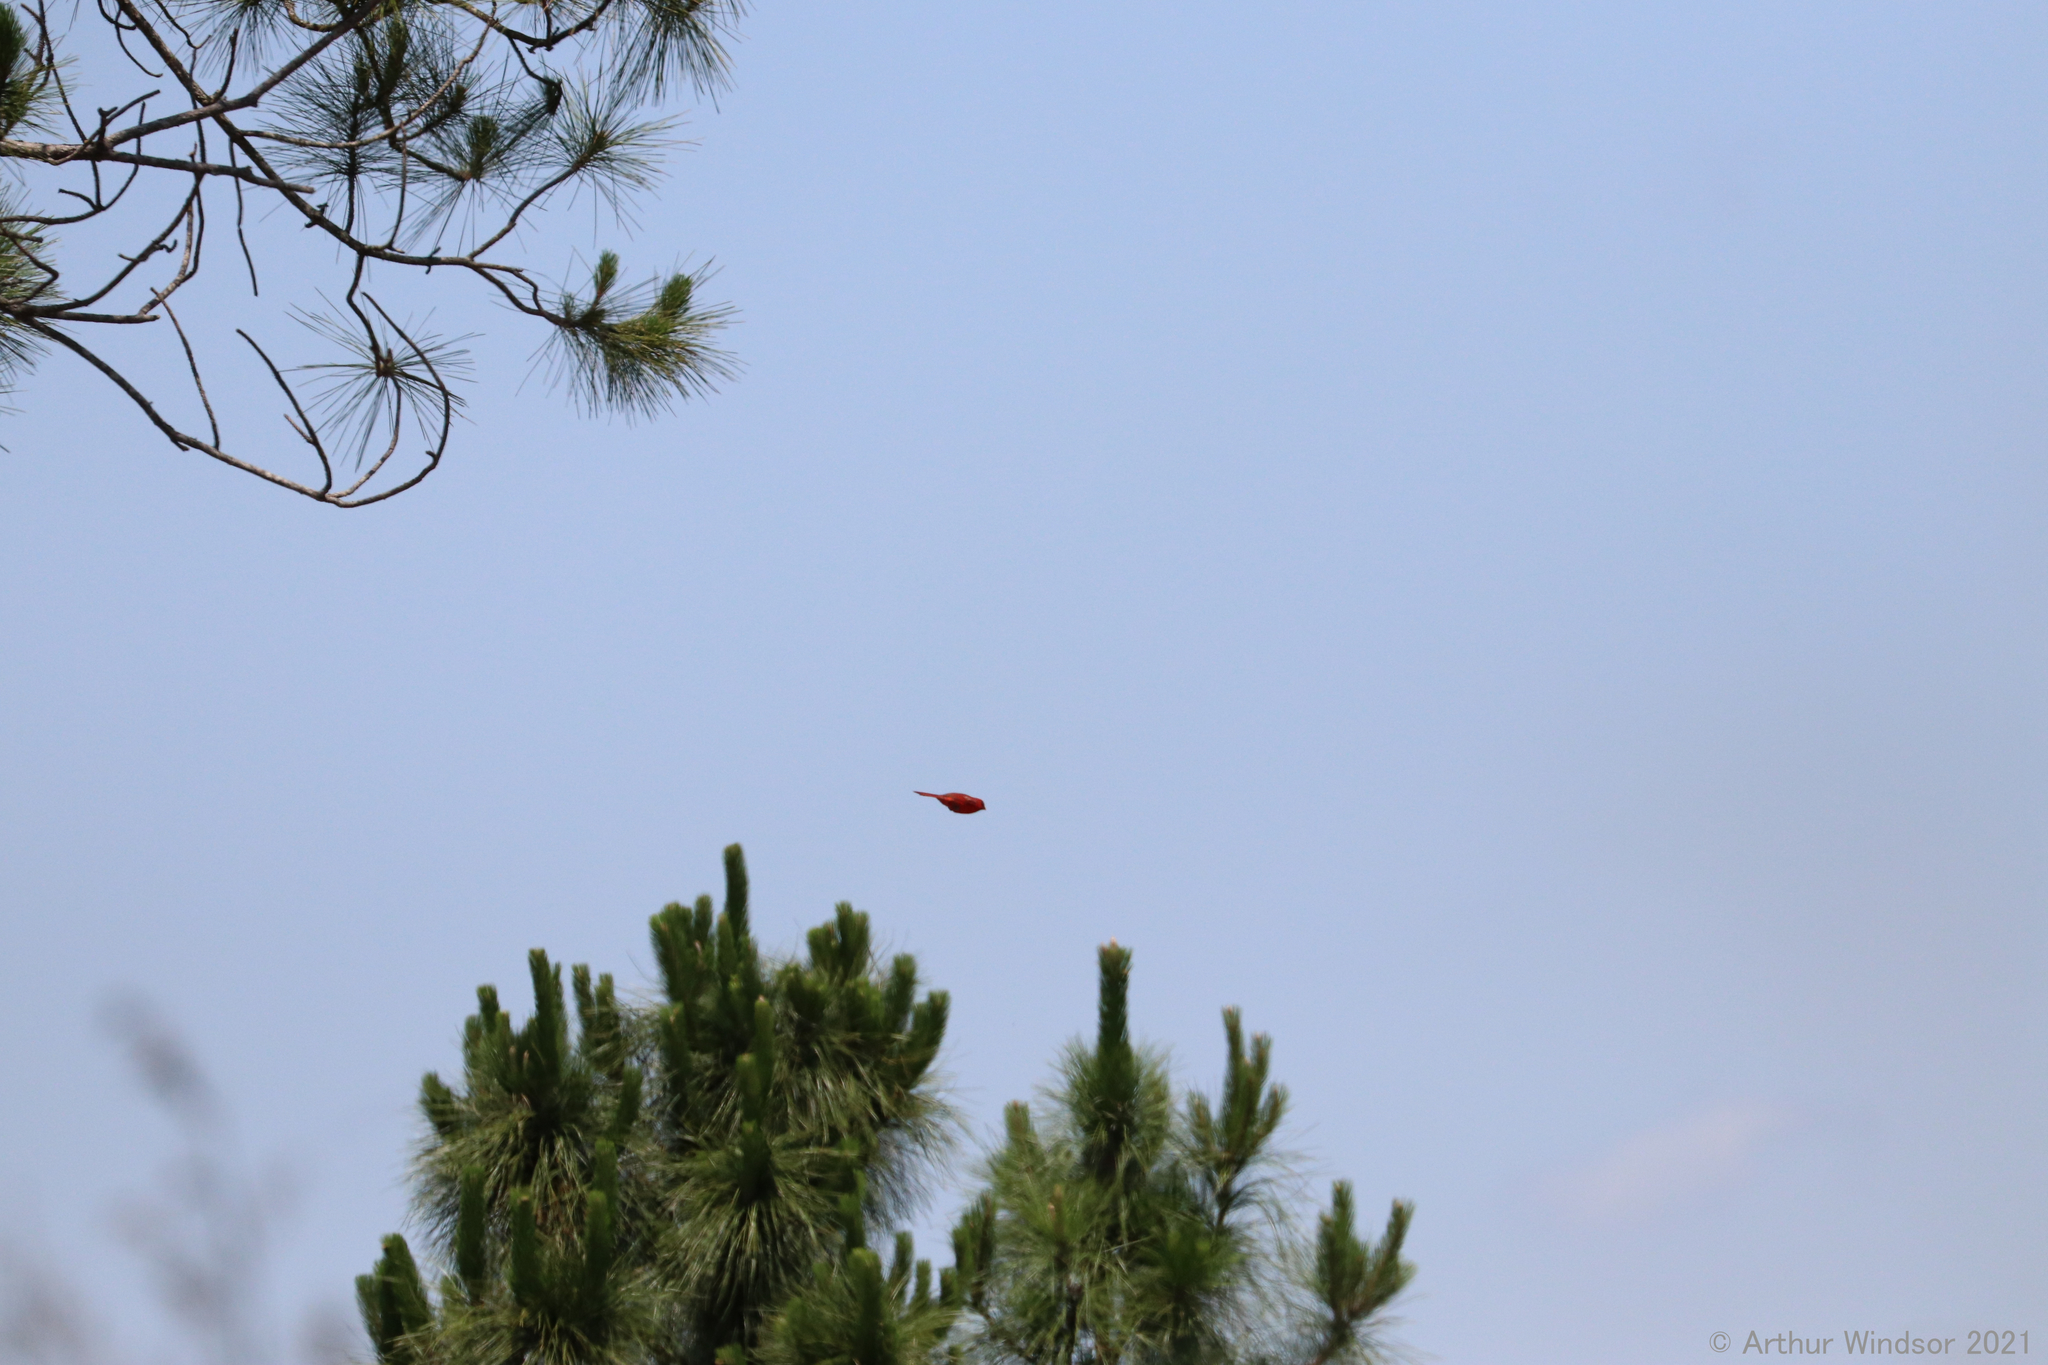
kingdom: Animalia
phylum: Chordata
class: Aves
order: Passeriformes
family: Cardinalidae
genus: Cardinalis
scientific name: Cardinalis cardinalis
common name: Northern cardinal
